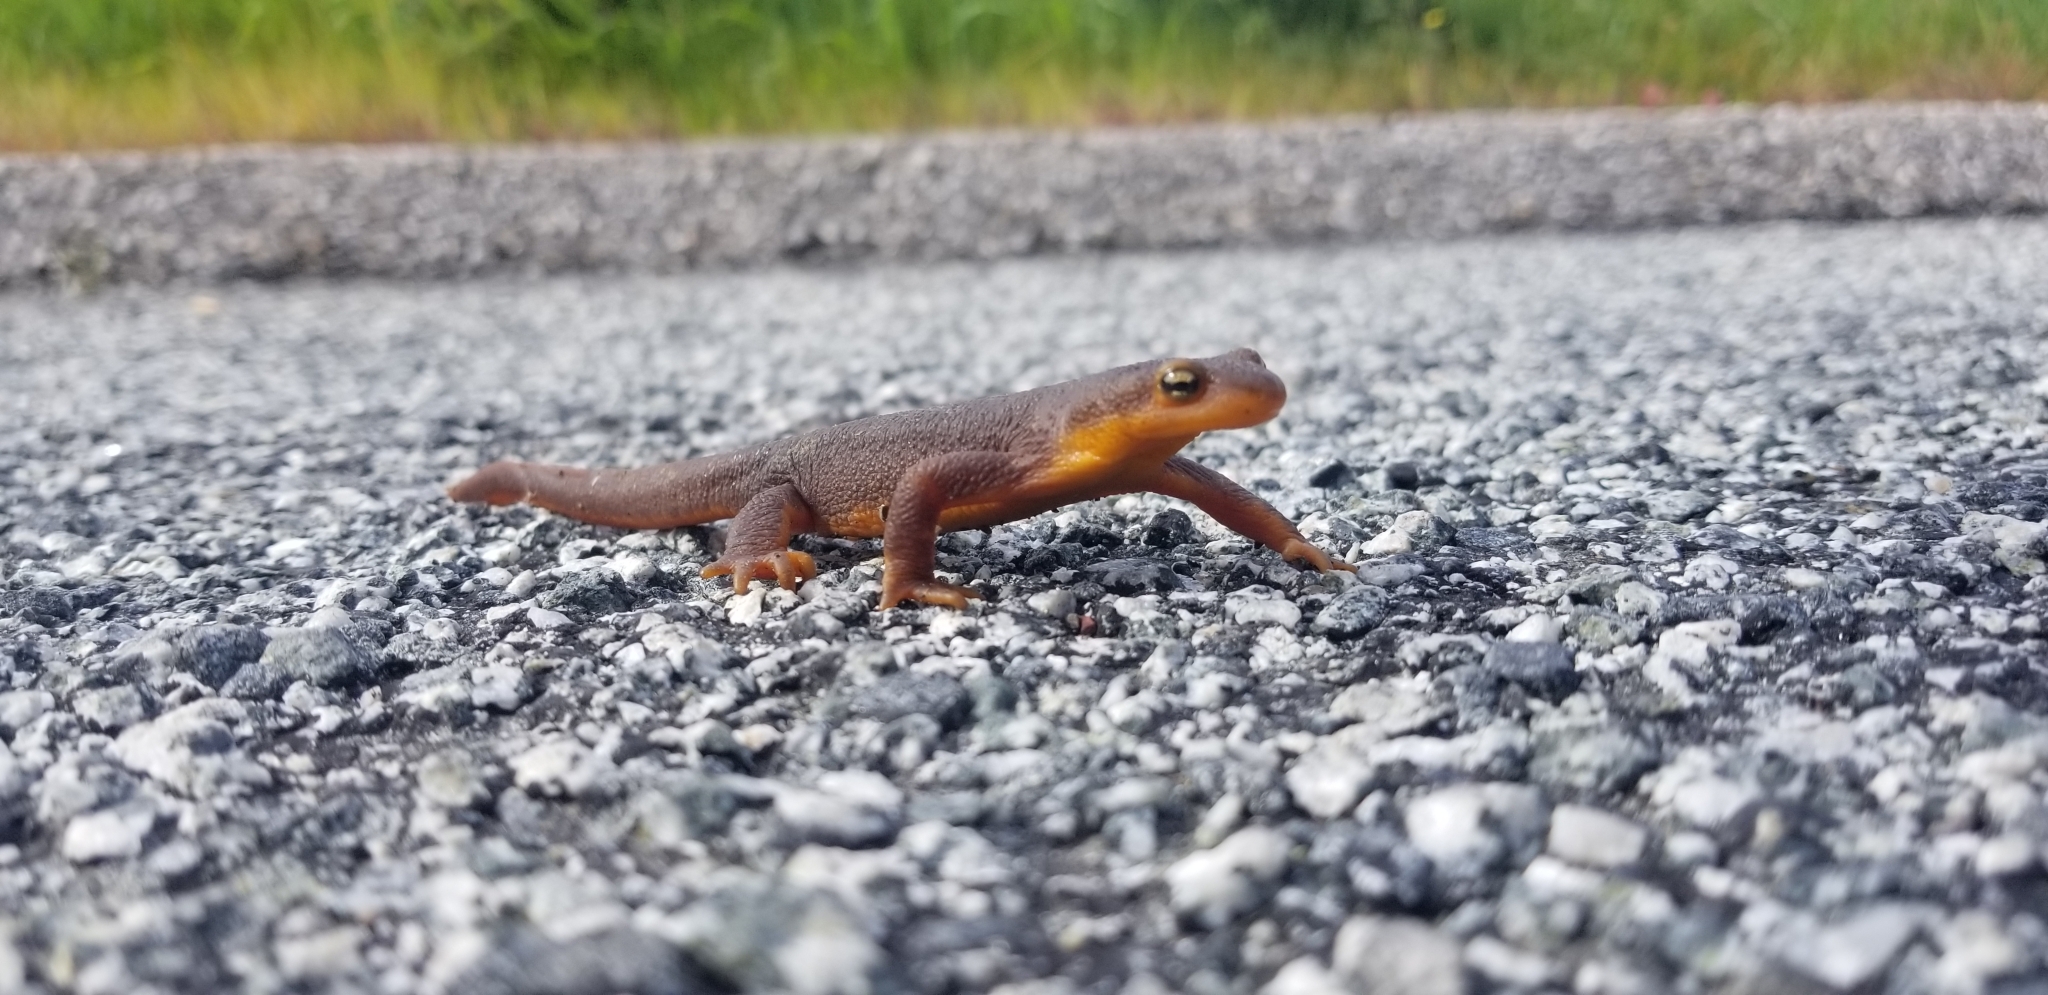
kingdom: Animalia
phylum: Chordata
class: Amphibia
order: Caudata
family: Salamandridae
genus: Taricha
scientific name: Taricha torosa
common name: California newt
